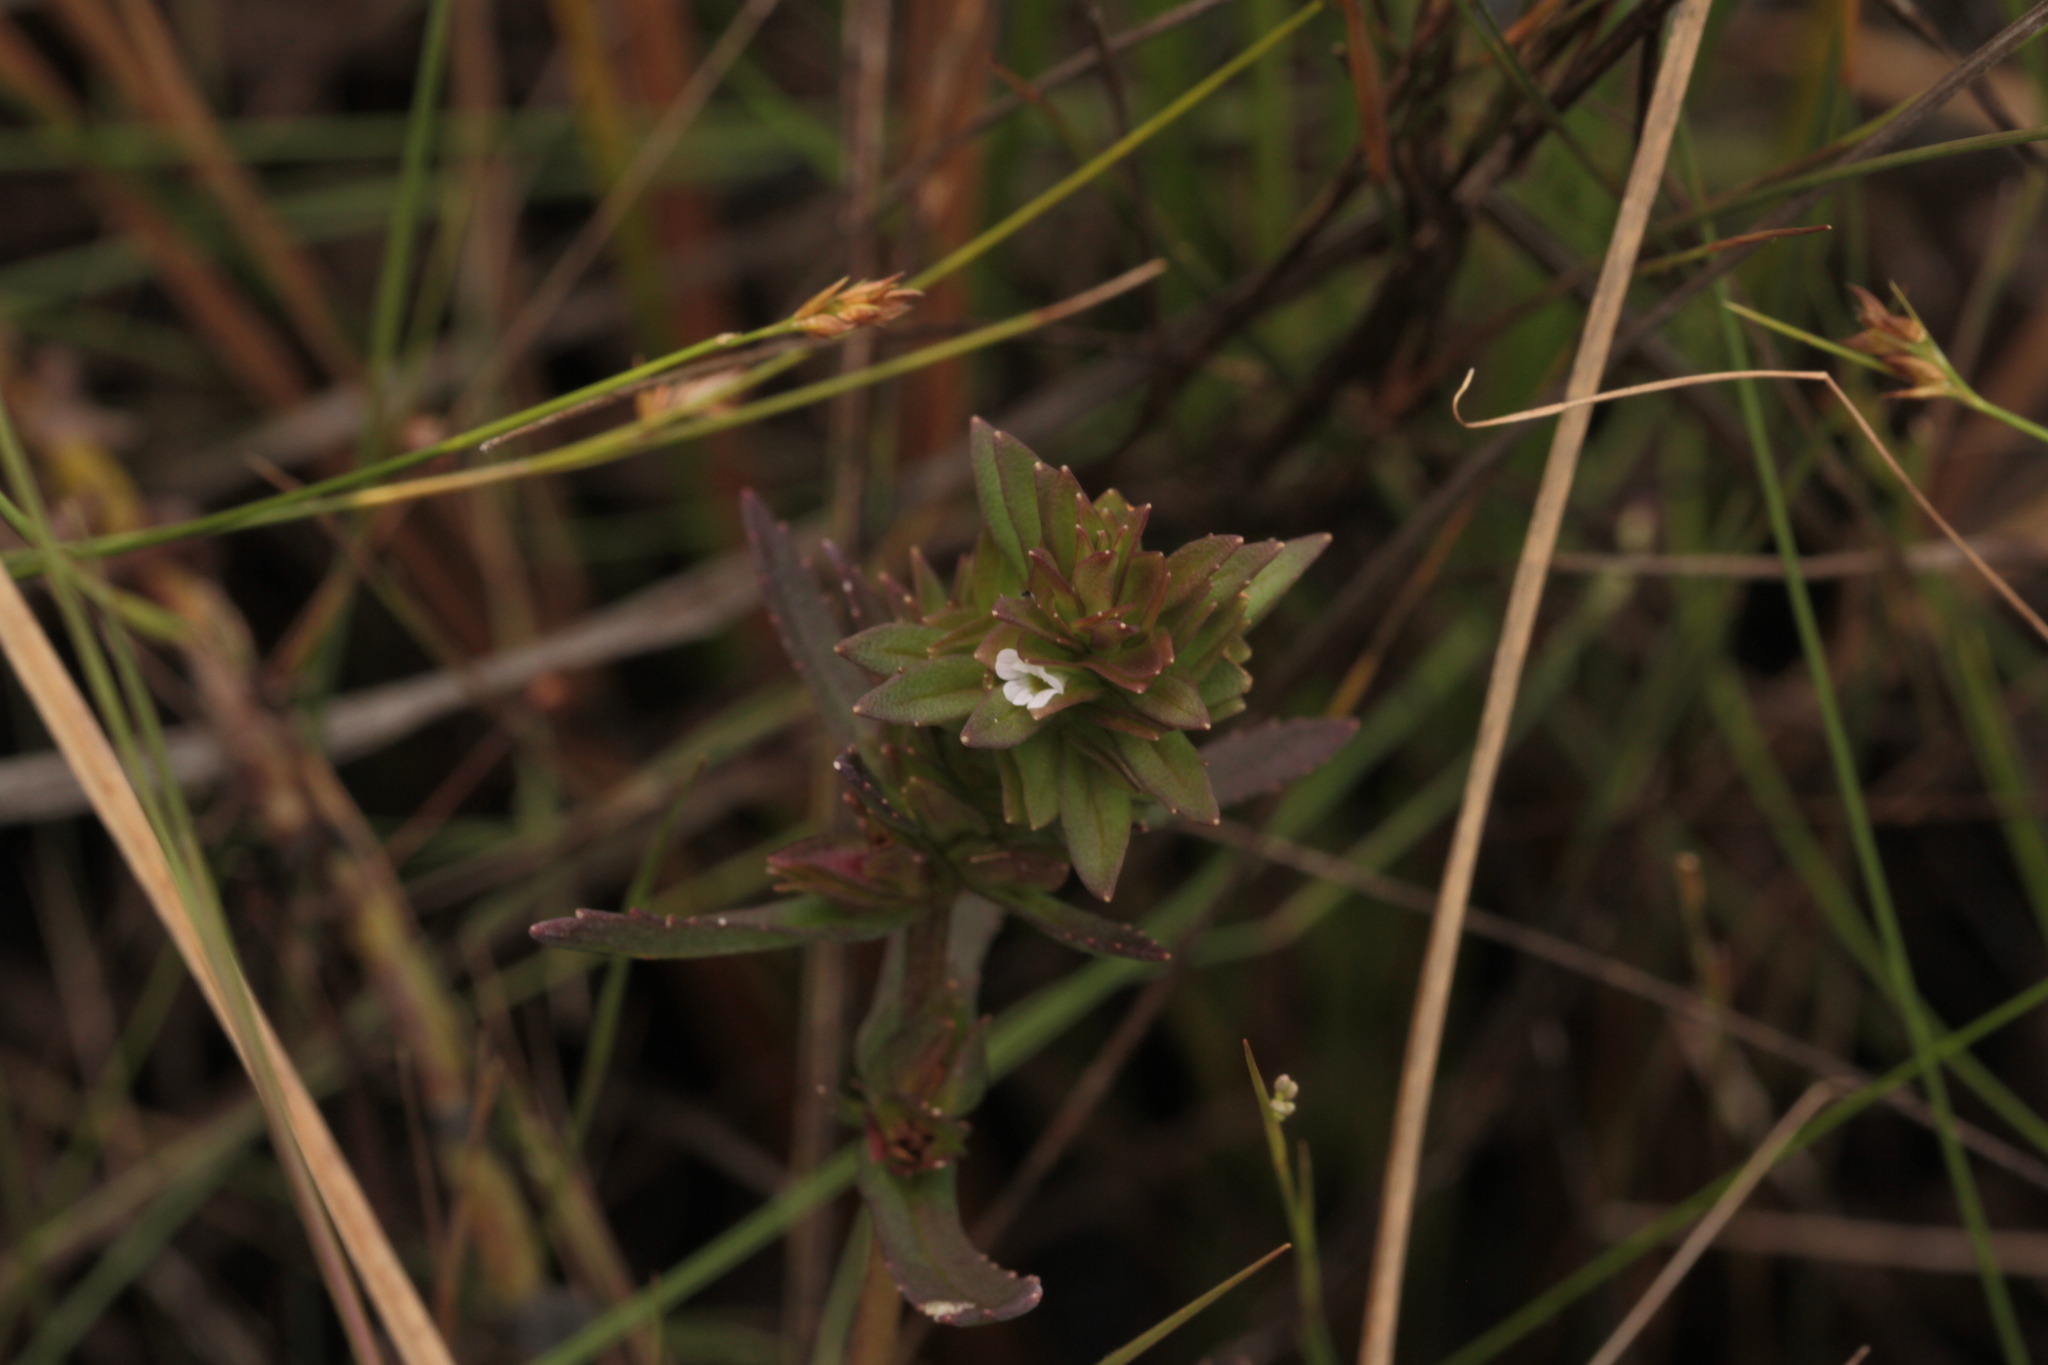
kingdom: Plantae
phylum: Tracheophyta
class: Magnoliopsida
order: Lamiales
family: Plantaginaceae
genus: Bacopa
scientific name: Bacopa sessiliflora
